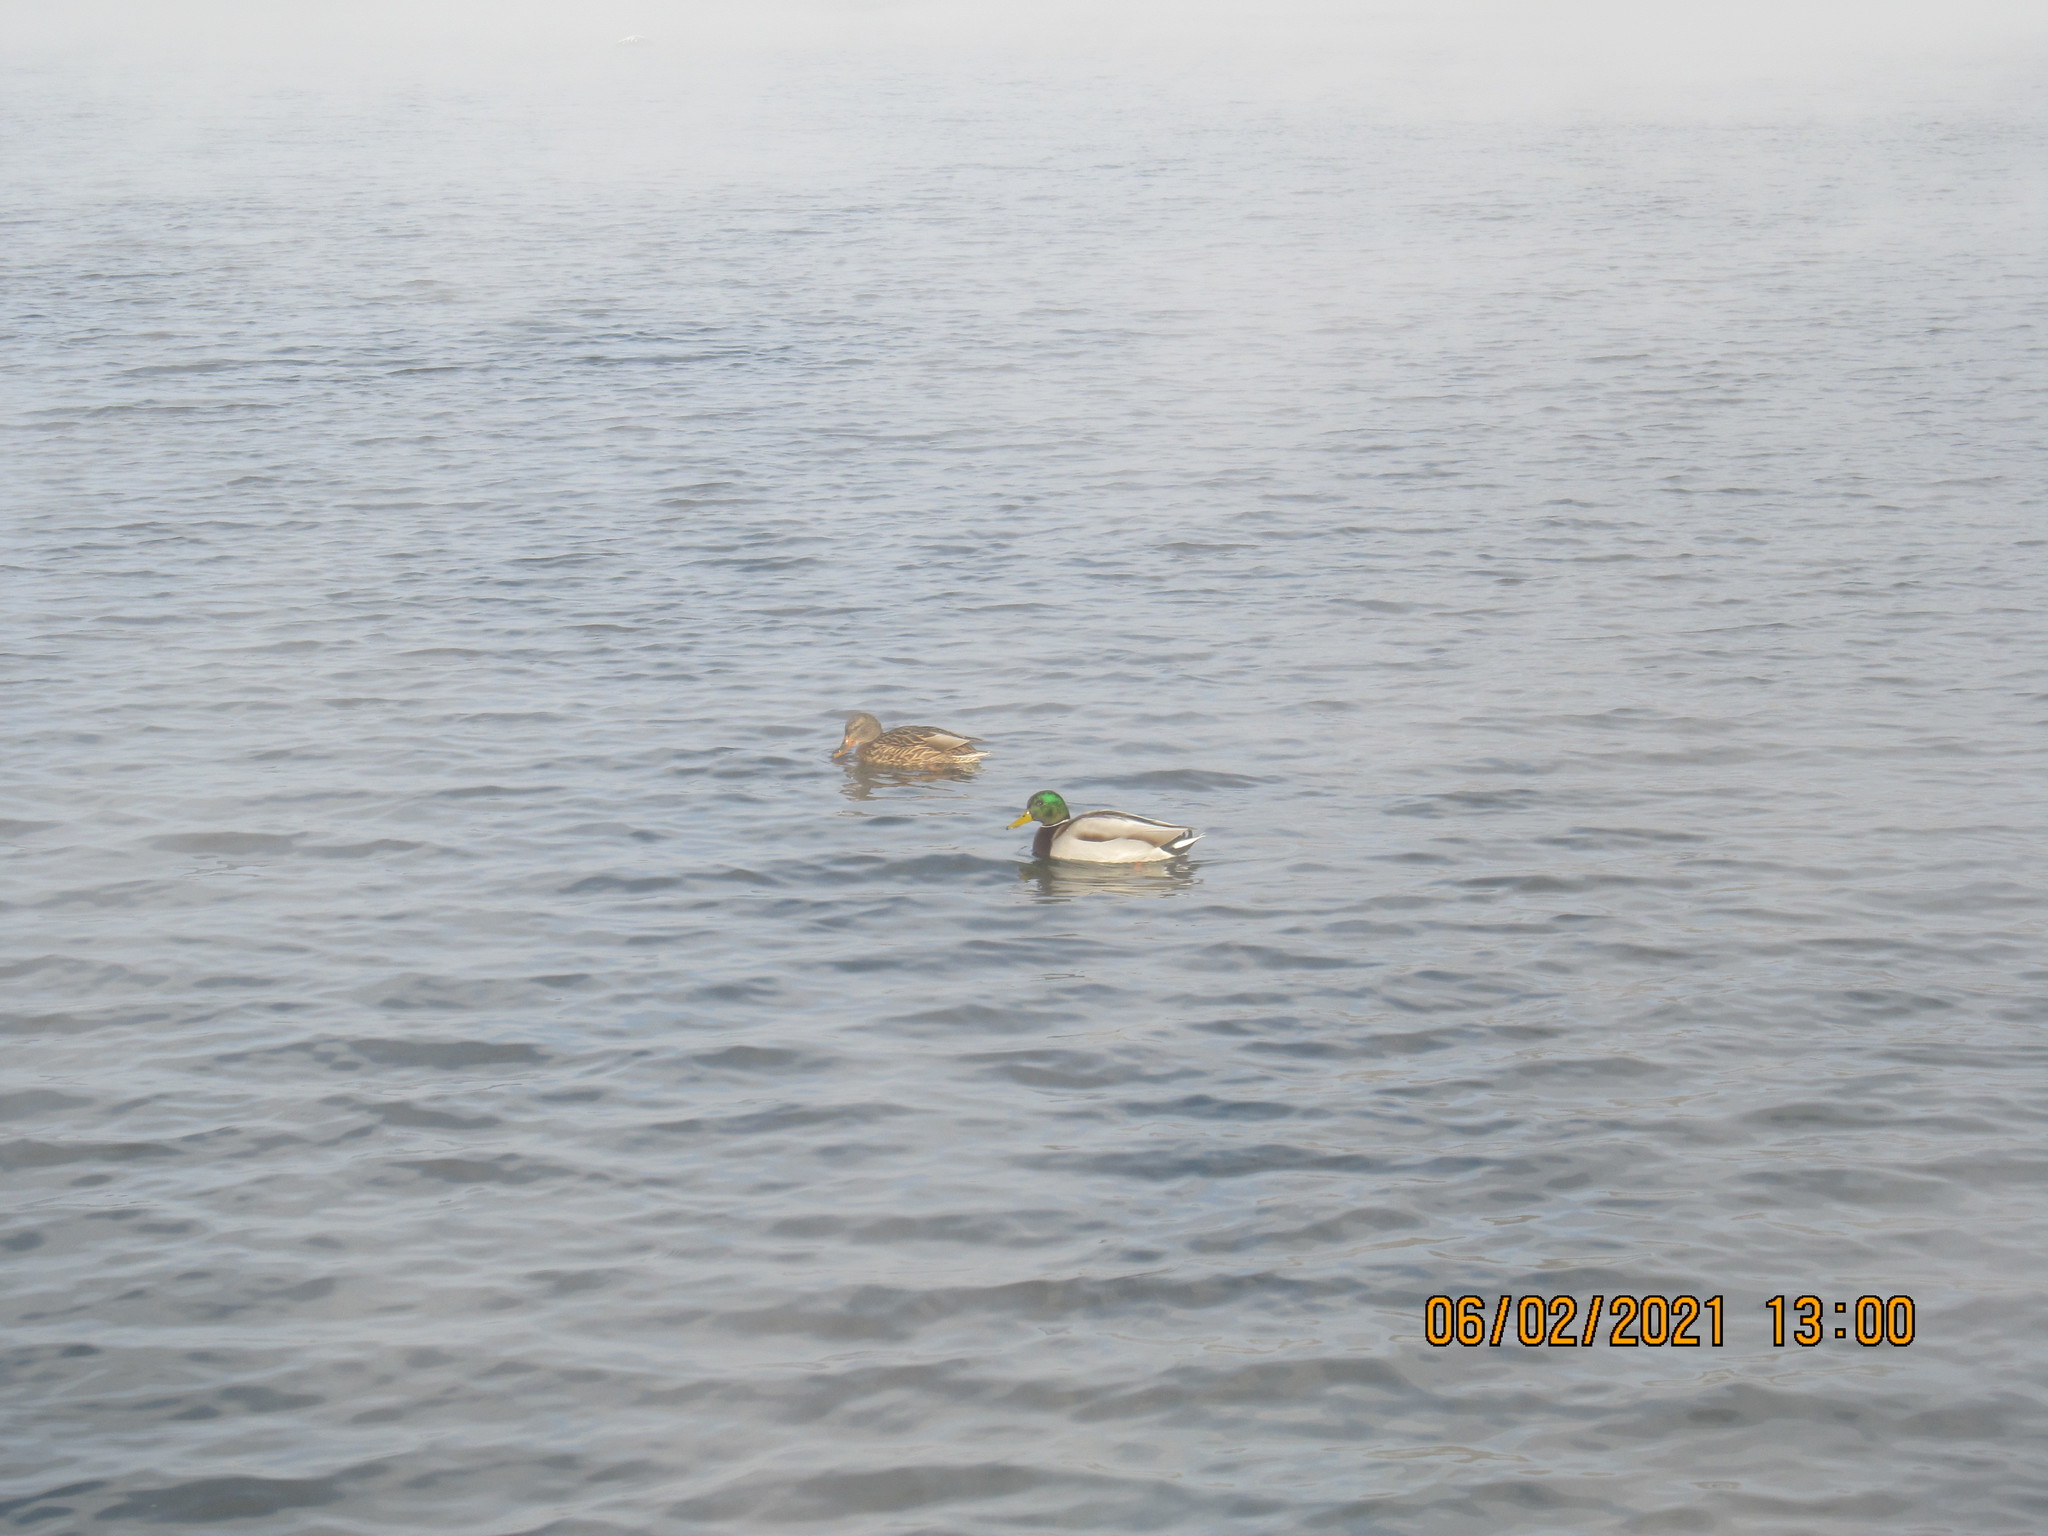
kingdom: Animalia
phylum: Chordata
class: Aves
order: Anseriformes
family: Anatidae
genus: Anas
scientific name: Anas platyrhynchos
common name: Mallard
